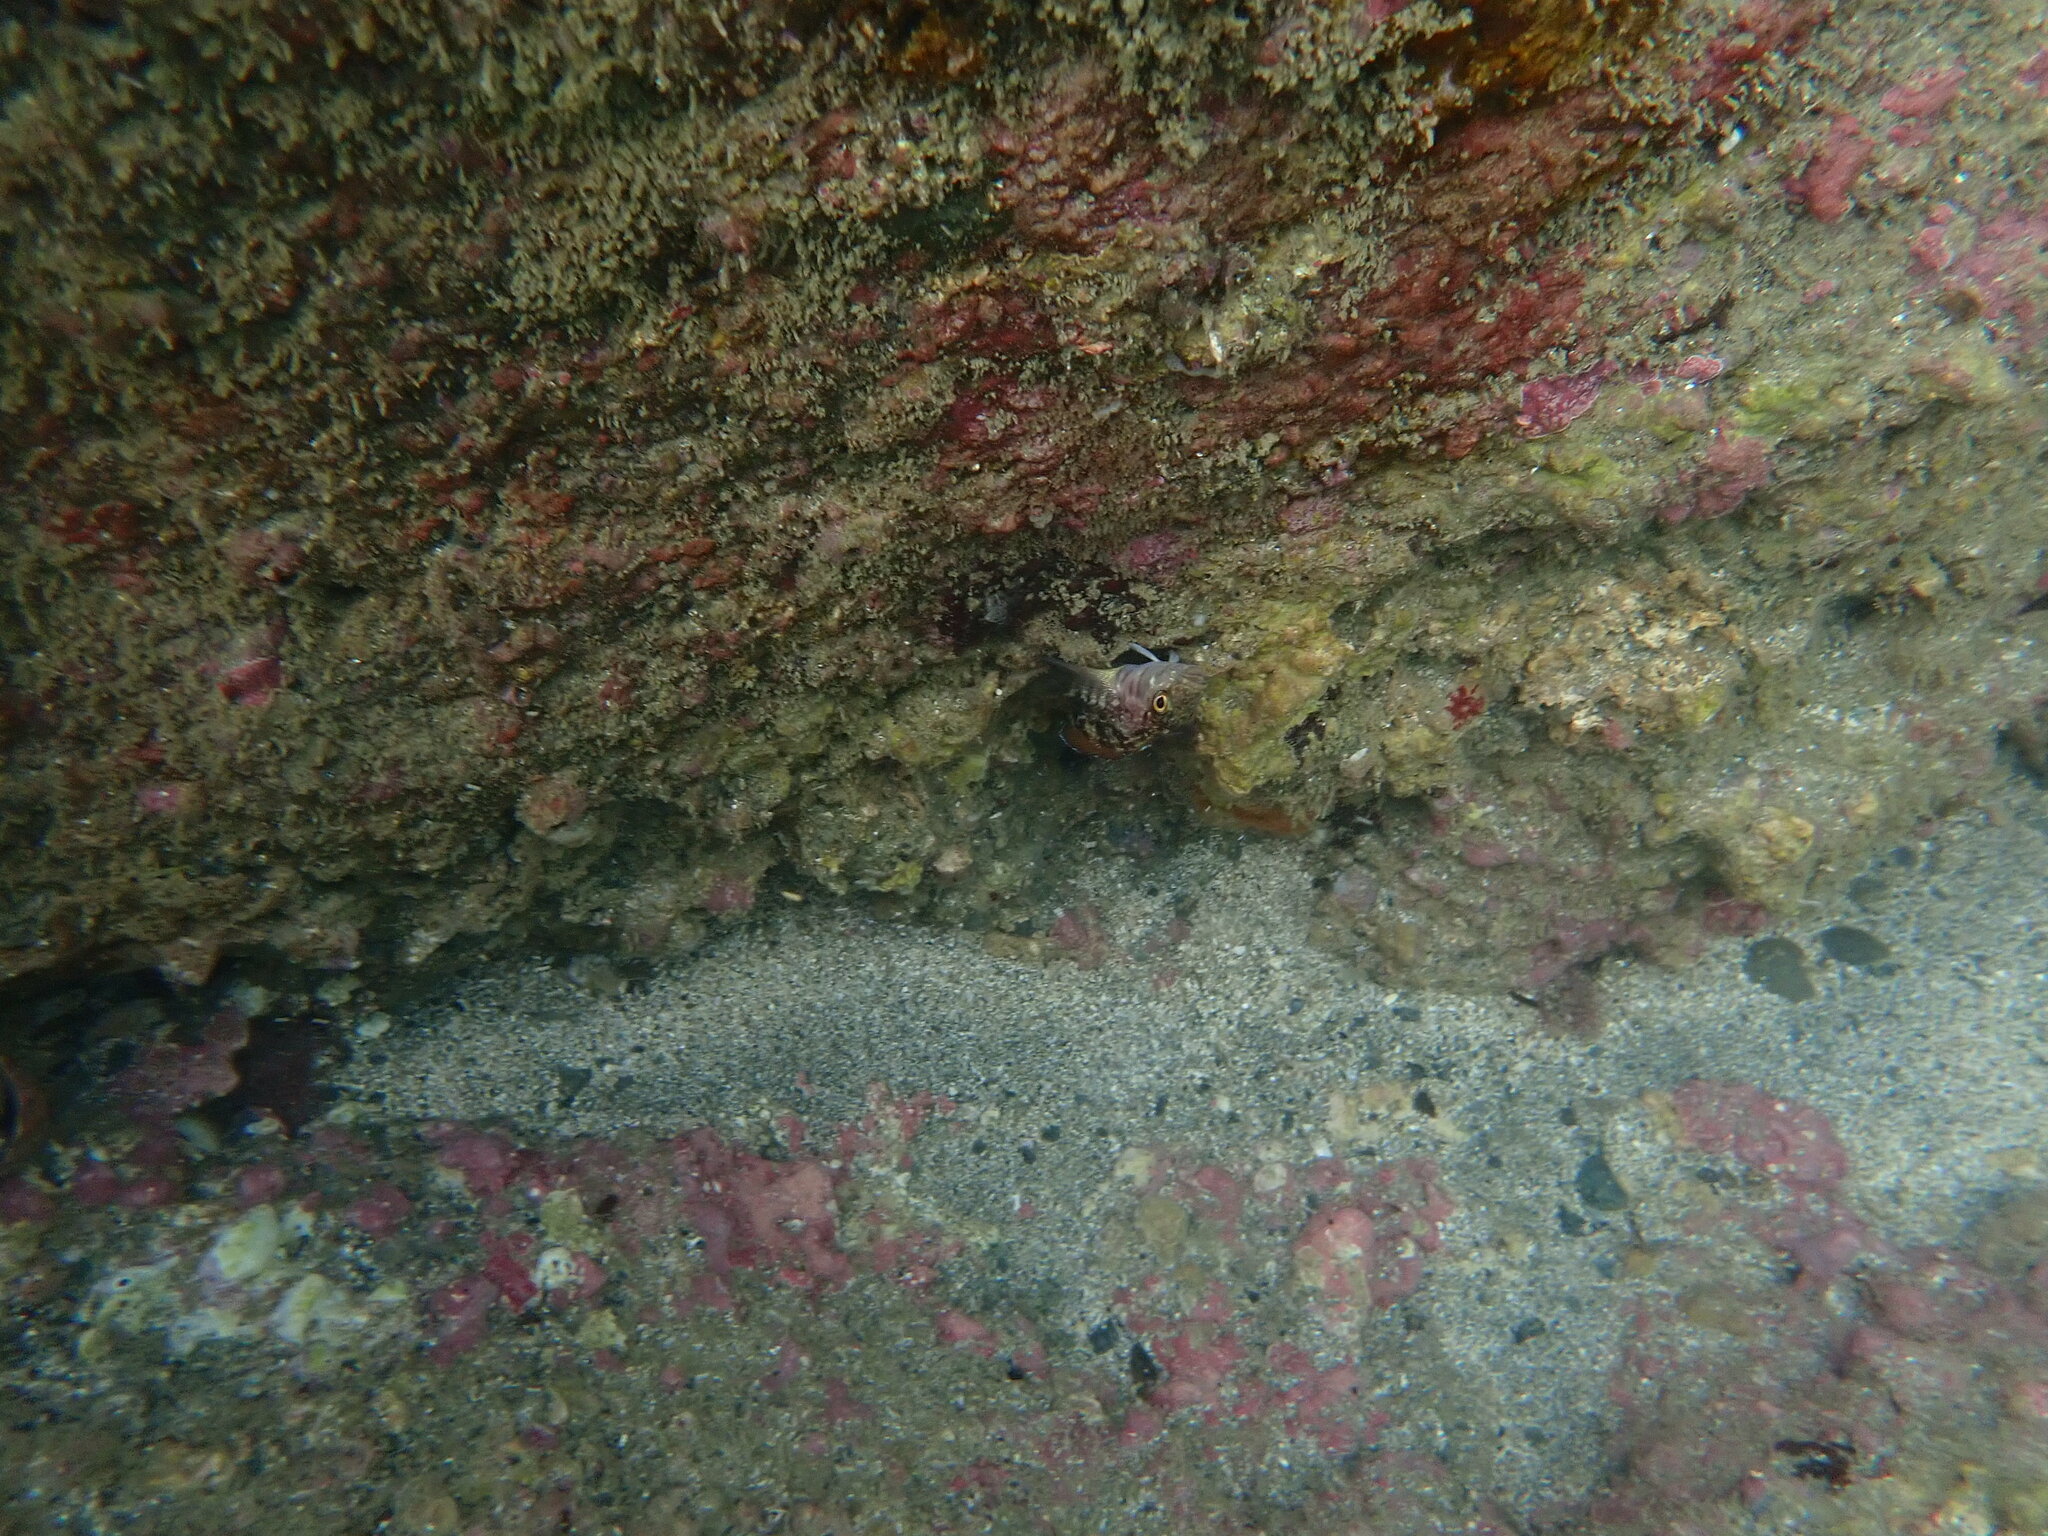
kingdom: Animalia
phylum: Chordata
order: Perciformes
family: Tripterygiidae
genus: Forsterygion
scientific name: Forsterygion varium
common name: Variable triplefin
